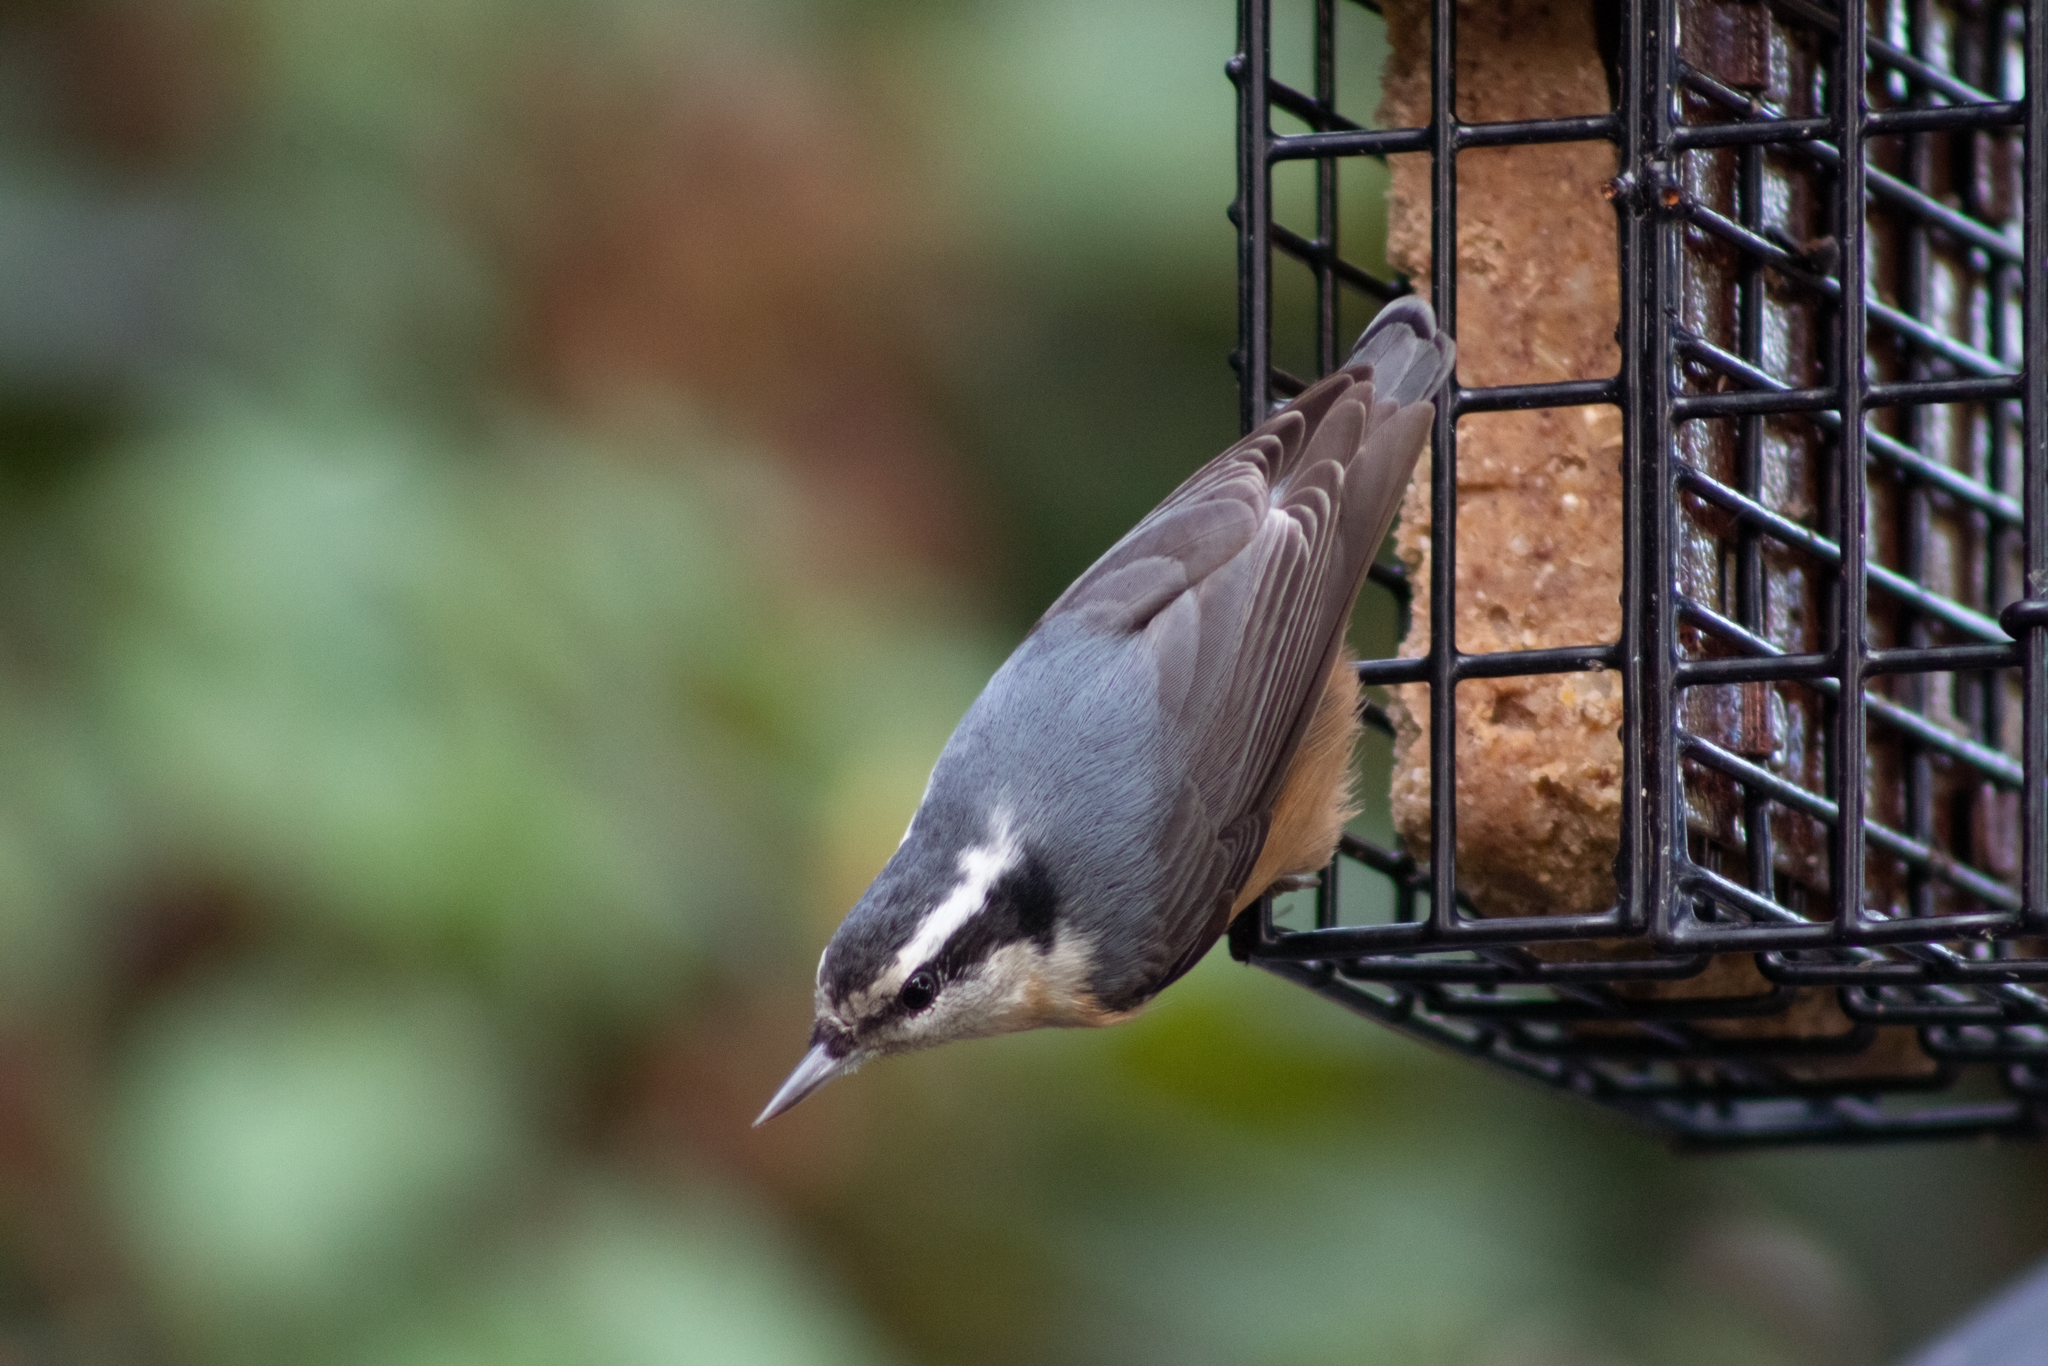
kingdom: Animalia
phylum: Chordata
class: Aves
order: Passeriformes
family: Sittidae
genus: Sitta
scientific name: Sitta canadensis
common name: Red-breasted nuthatch
